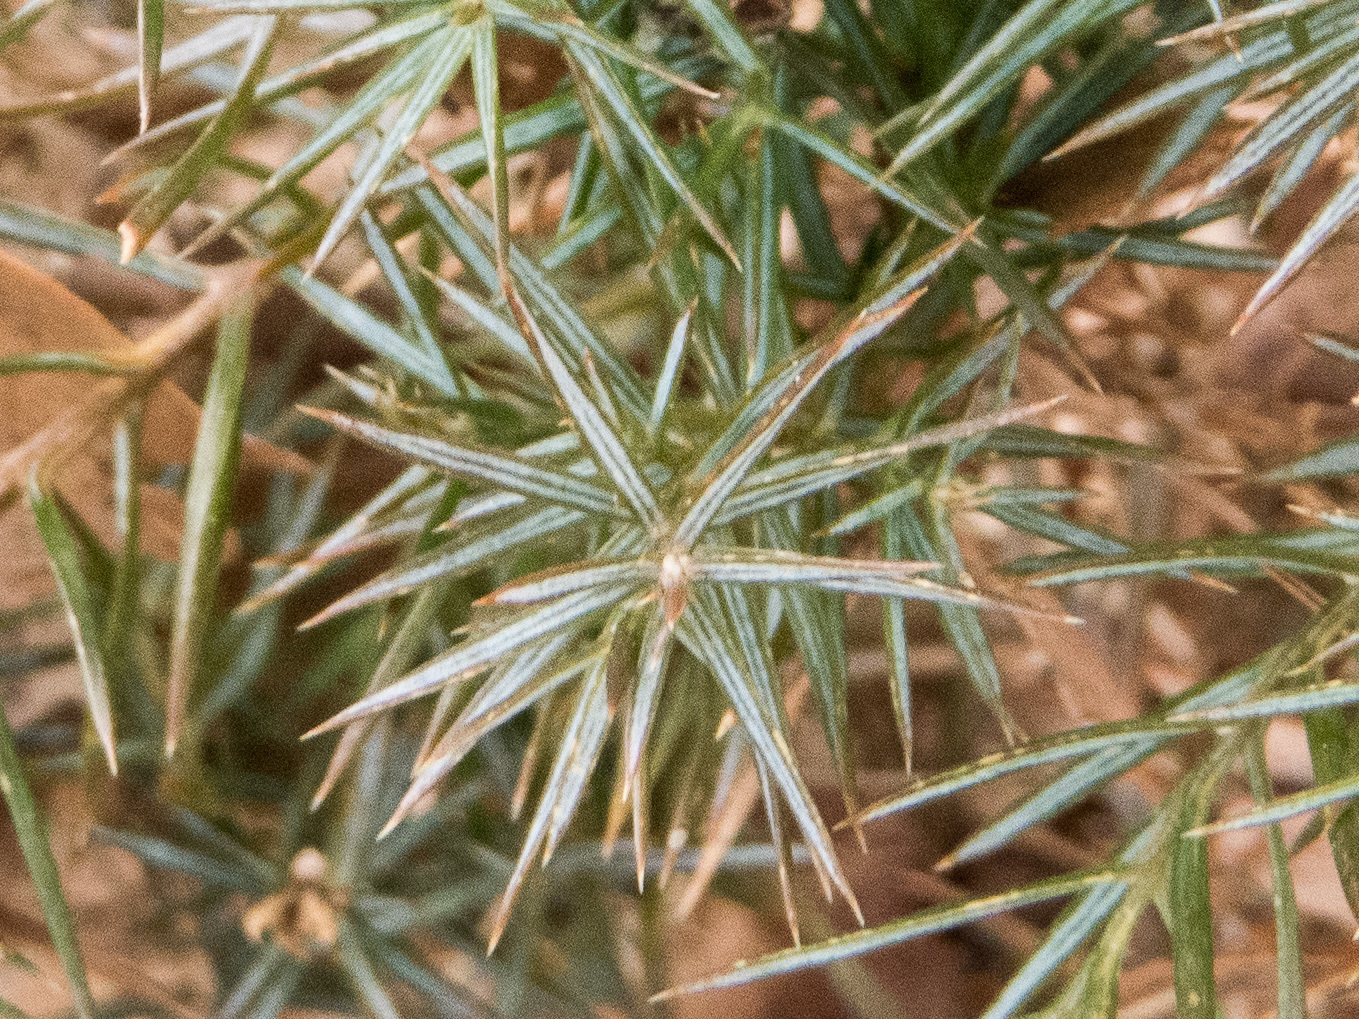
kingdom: Plantae
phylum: Tracheophyta
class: Pinopsida
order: Pinales
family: Cupressaceae
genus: Juniperus
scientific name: Juniperus virginiana
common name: Red juniper
